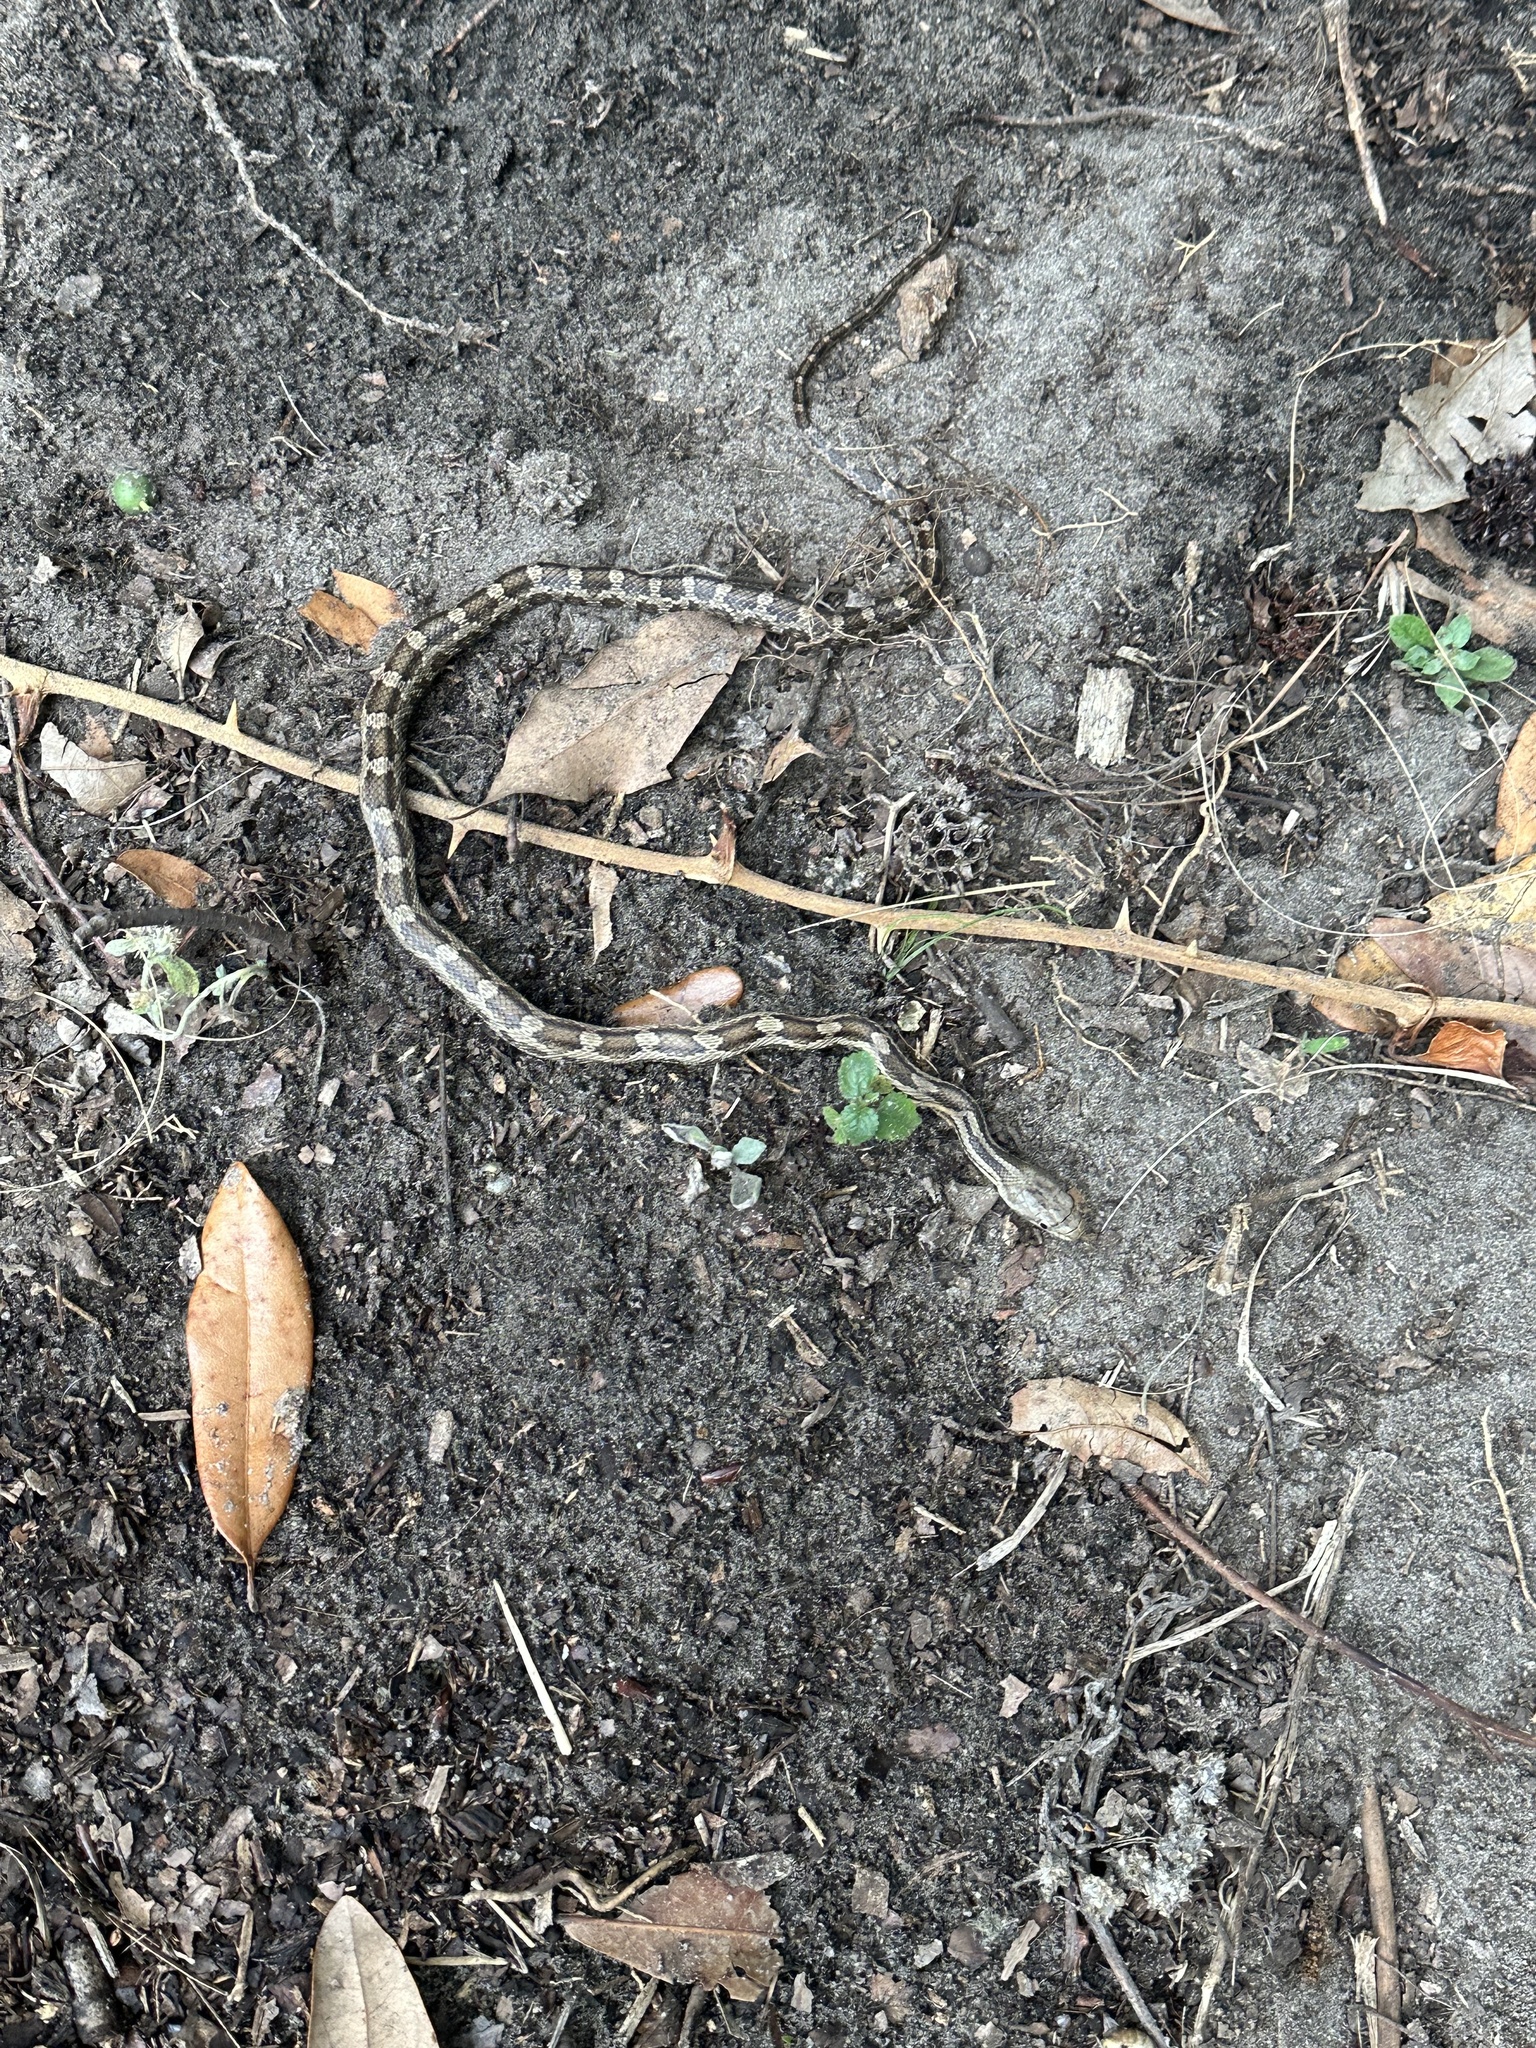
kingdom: Animalia
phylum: Chordata
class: Squamata
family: Colubridae
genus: Pantherophis
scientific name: Pantherophis alleghaniensis
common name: Eastern rat snake
